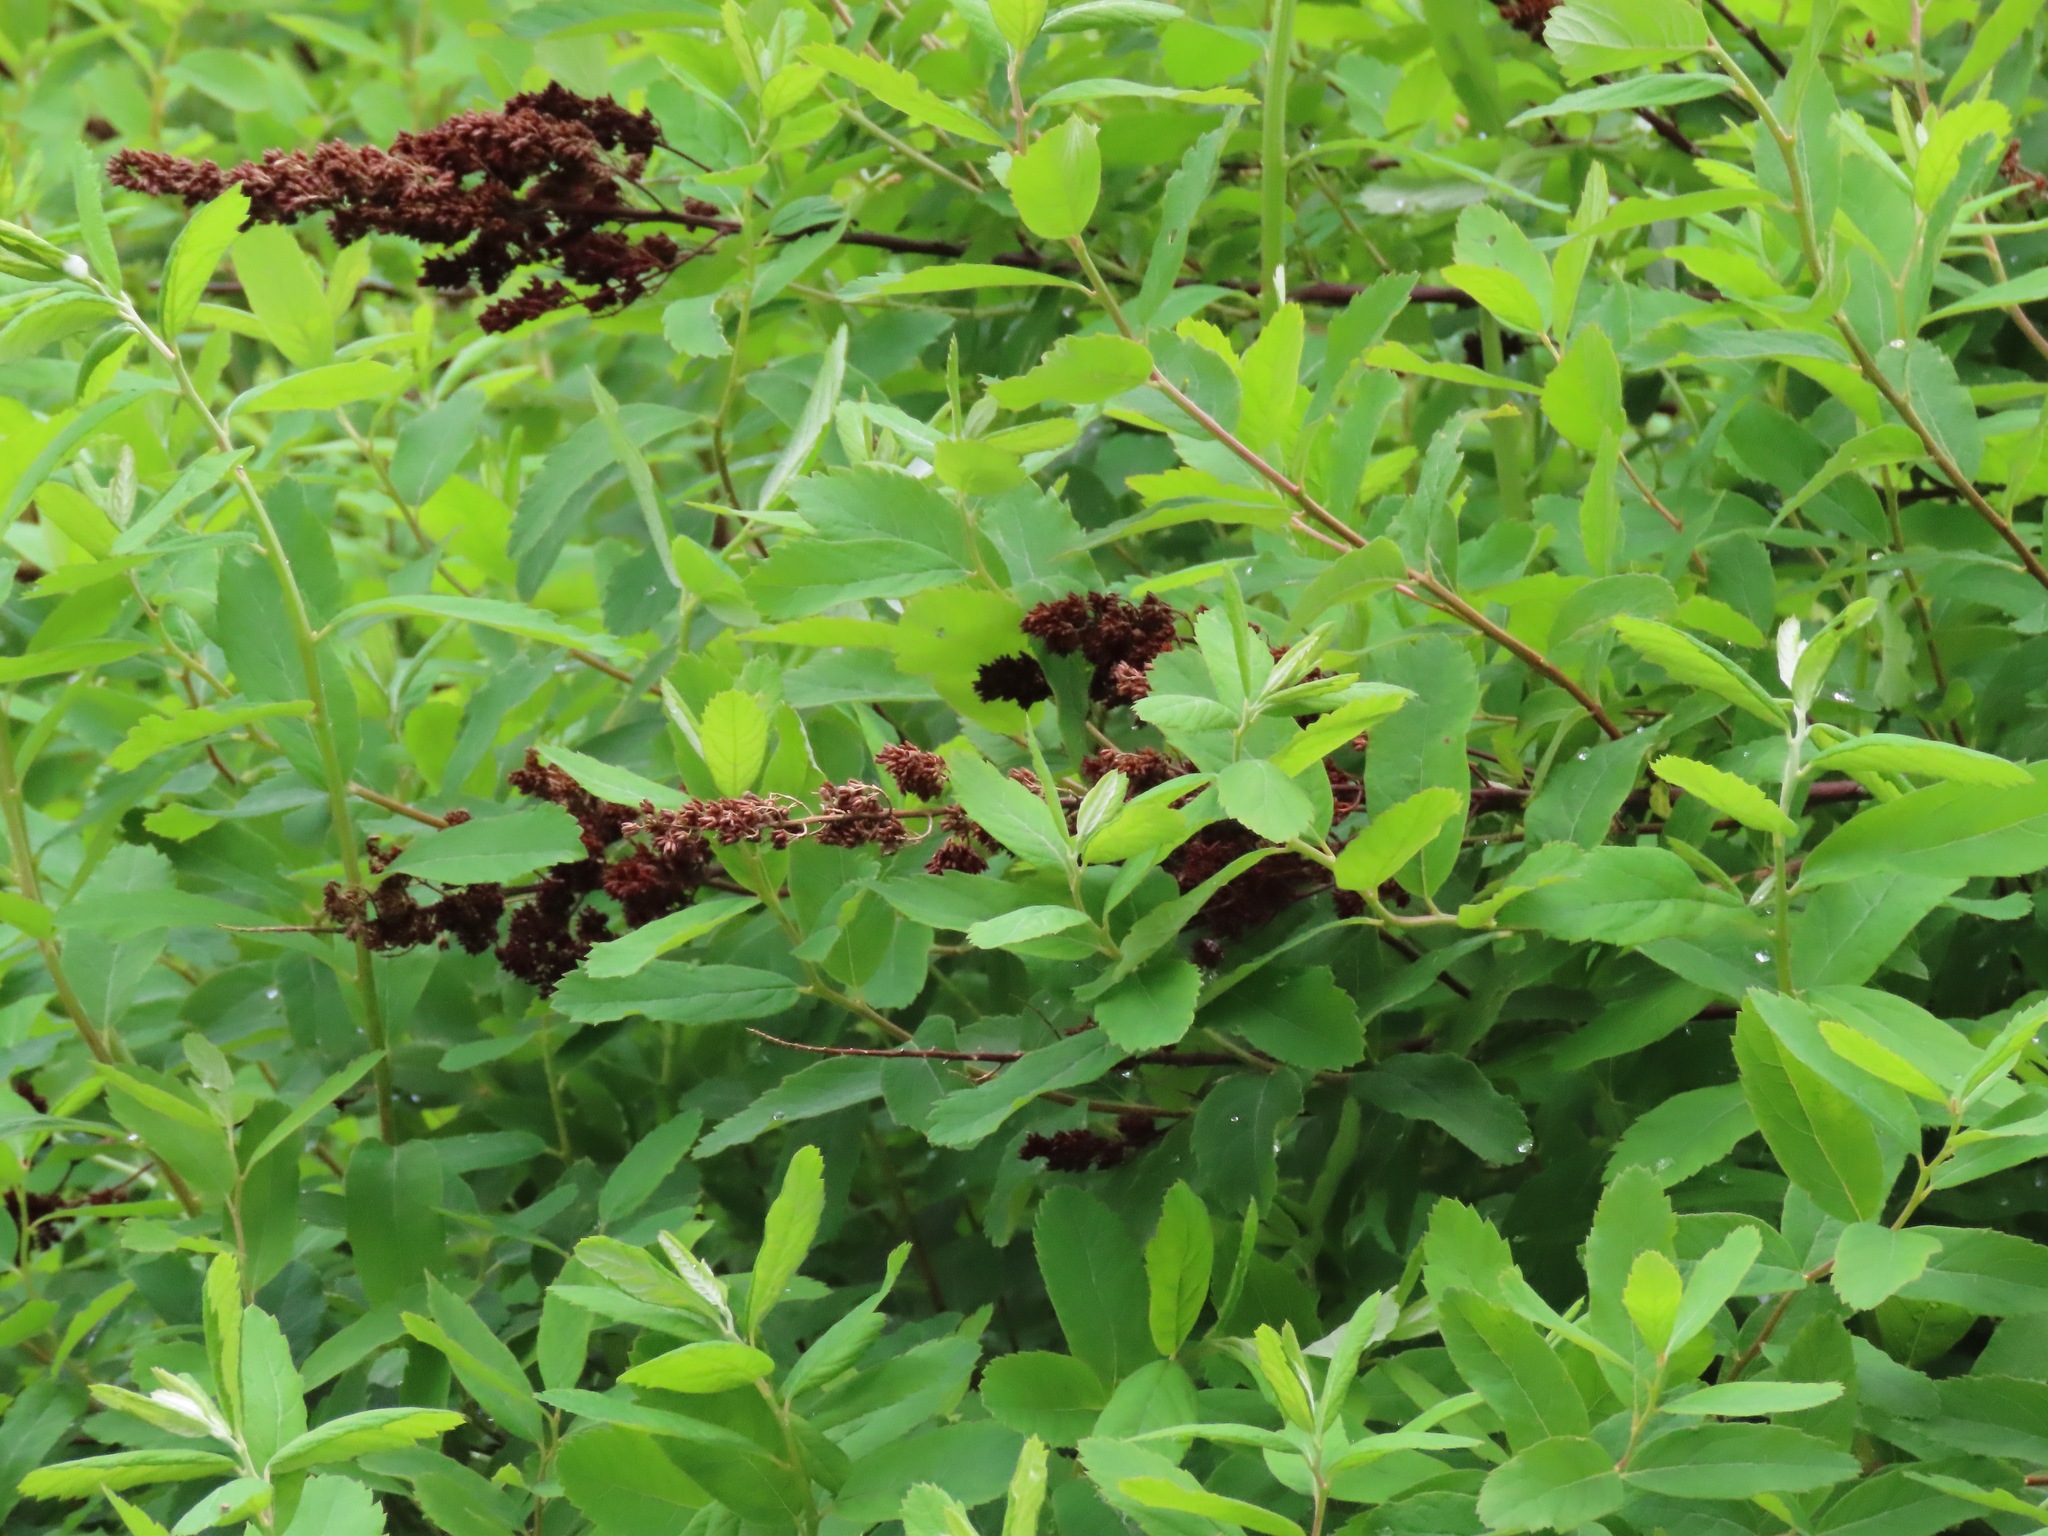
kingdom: Plantae
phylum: Tracheophyta
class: Magnoliopsida
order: Rosales
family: Rosaceae
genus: Spiraea
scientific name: Spiraea douglasii
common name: Steeplebush
